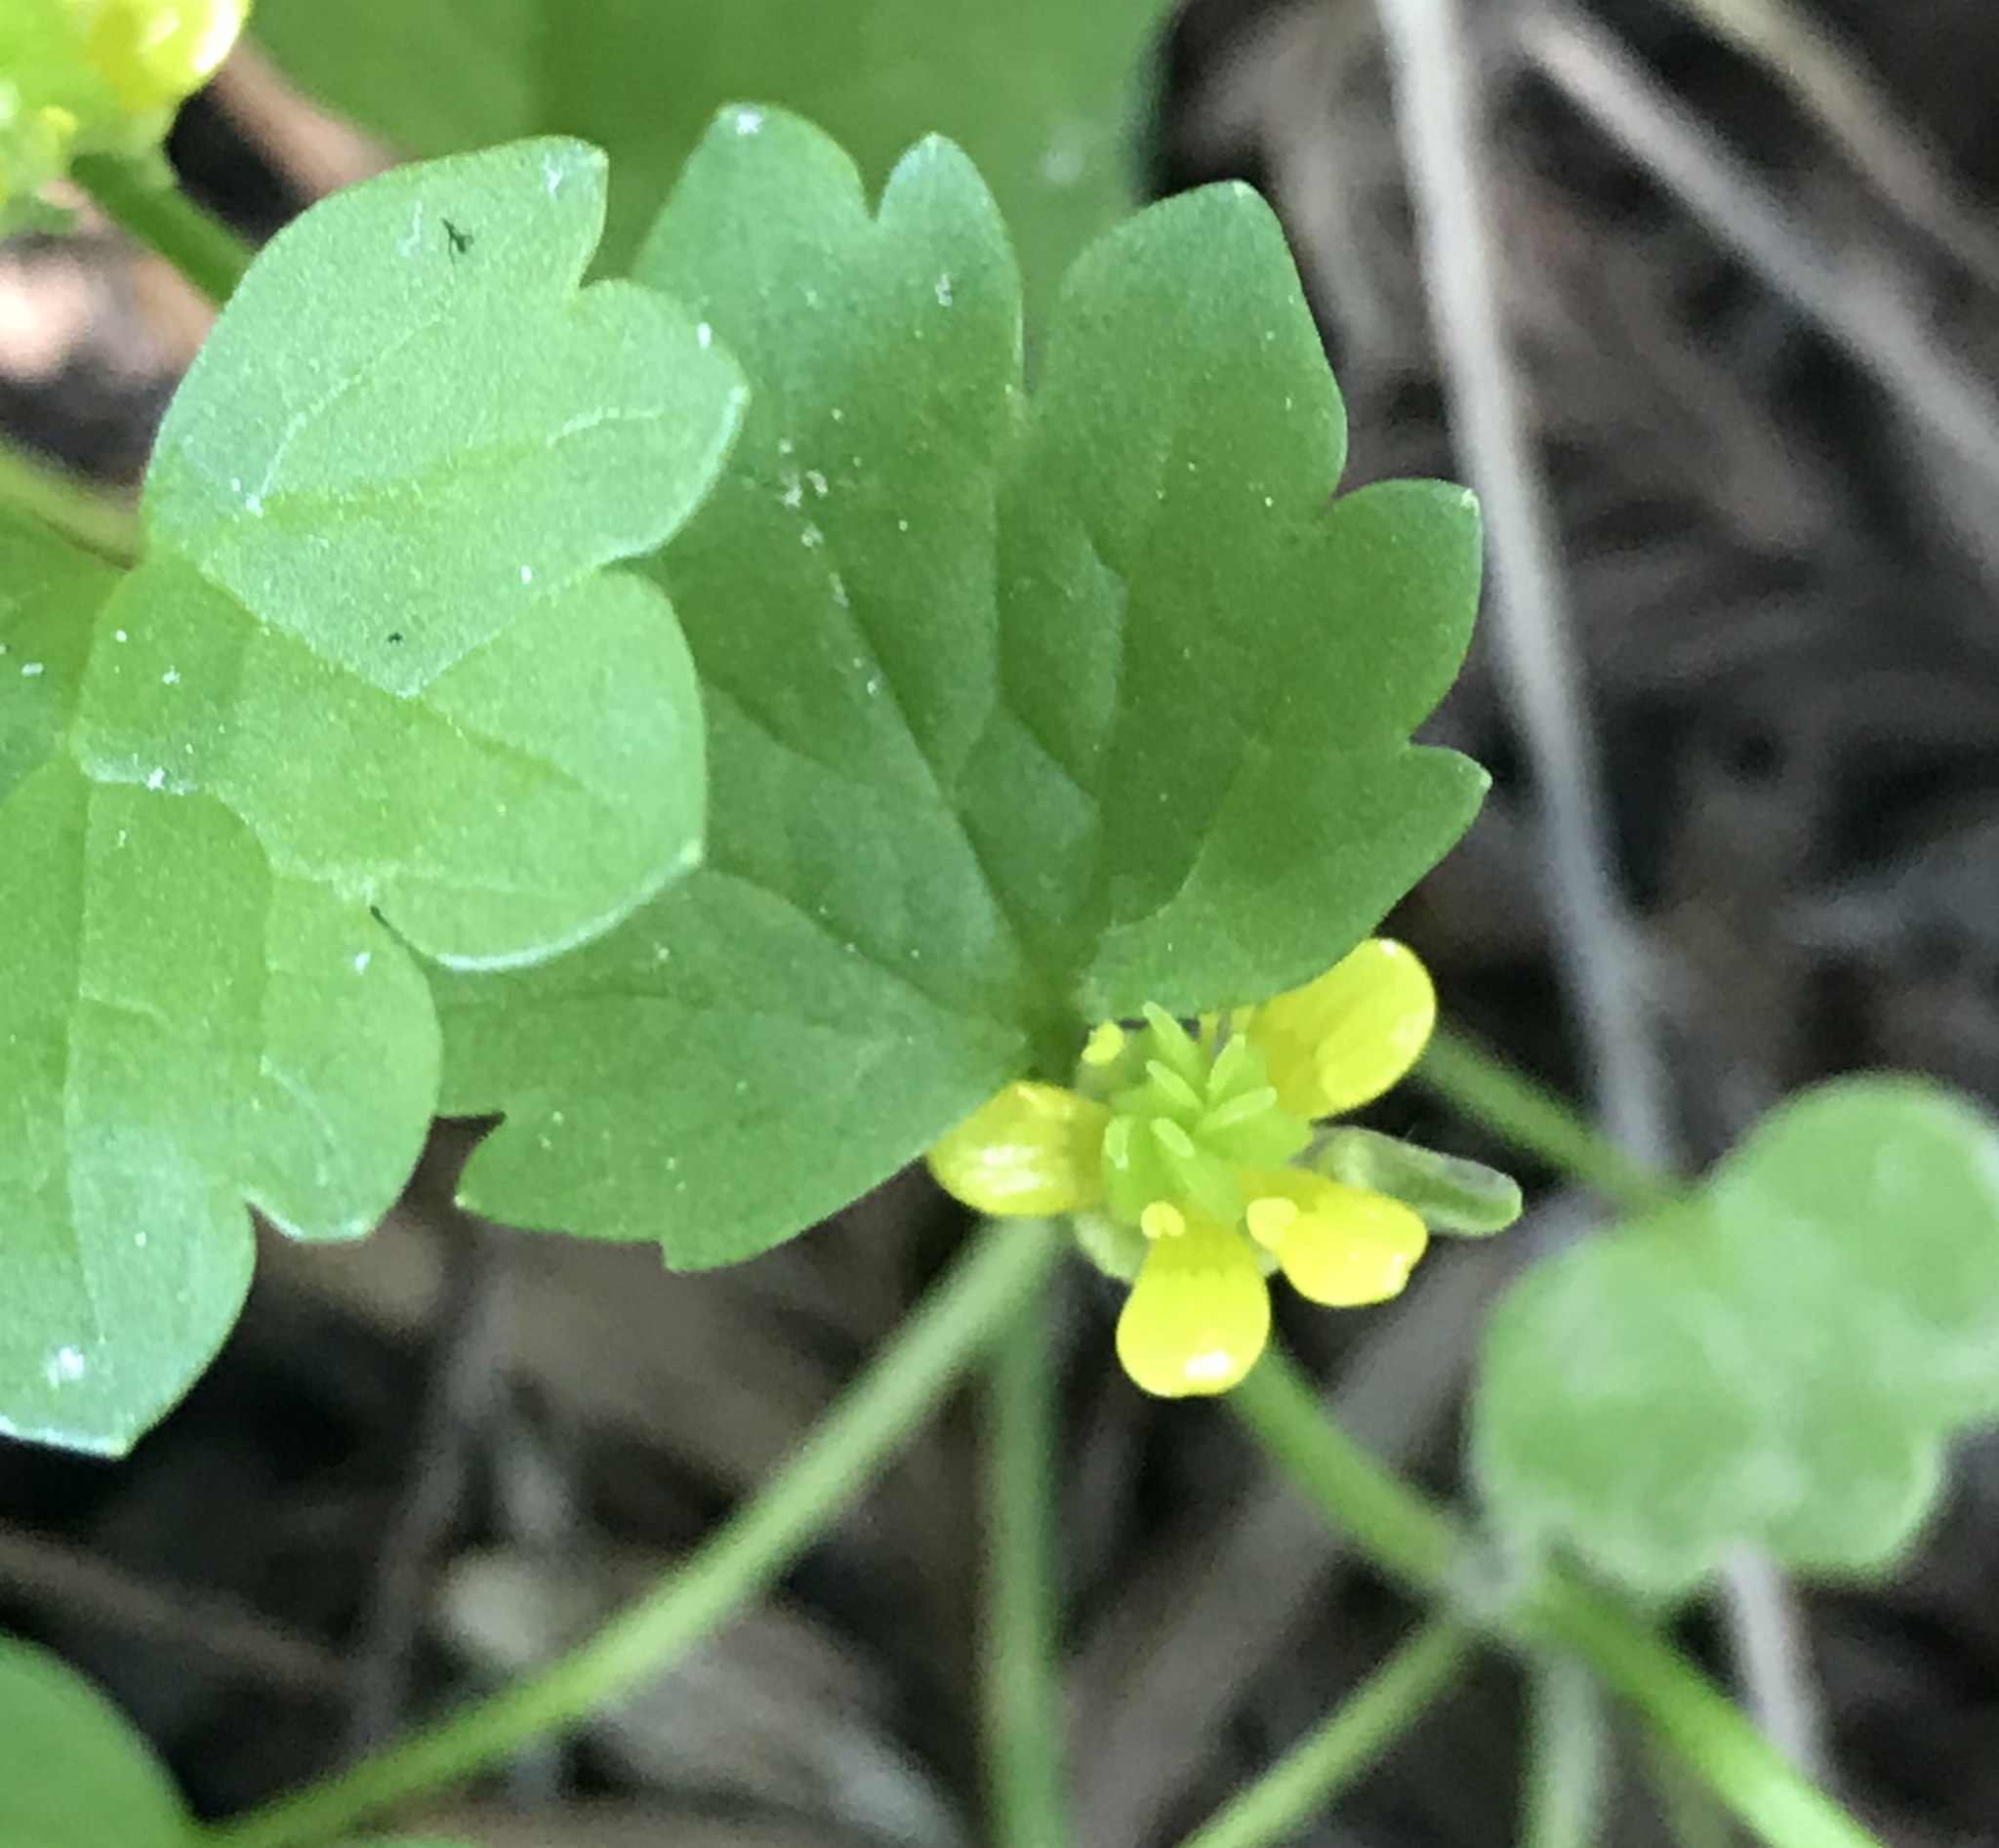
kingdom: Plantae
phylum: Tracheophyta
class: Magnoliopsida
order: Ranunculales
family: Ranunculaceae
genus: Ranunculus
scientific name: Ranunculus muricatus
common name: Rough-fruited buttercup
